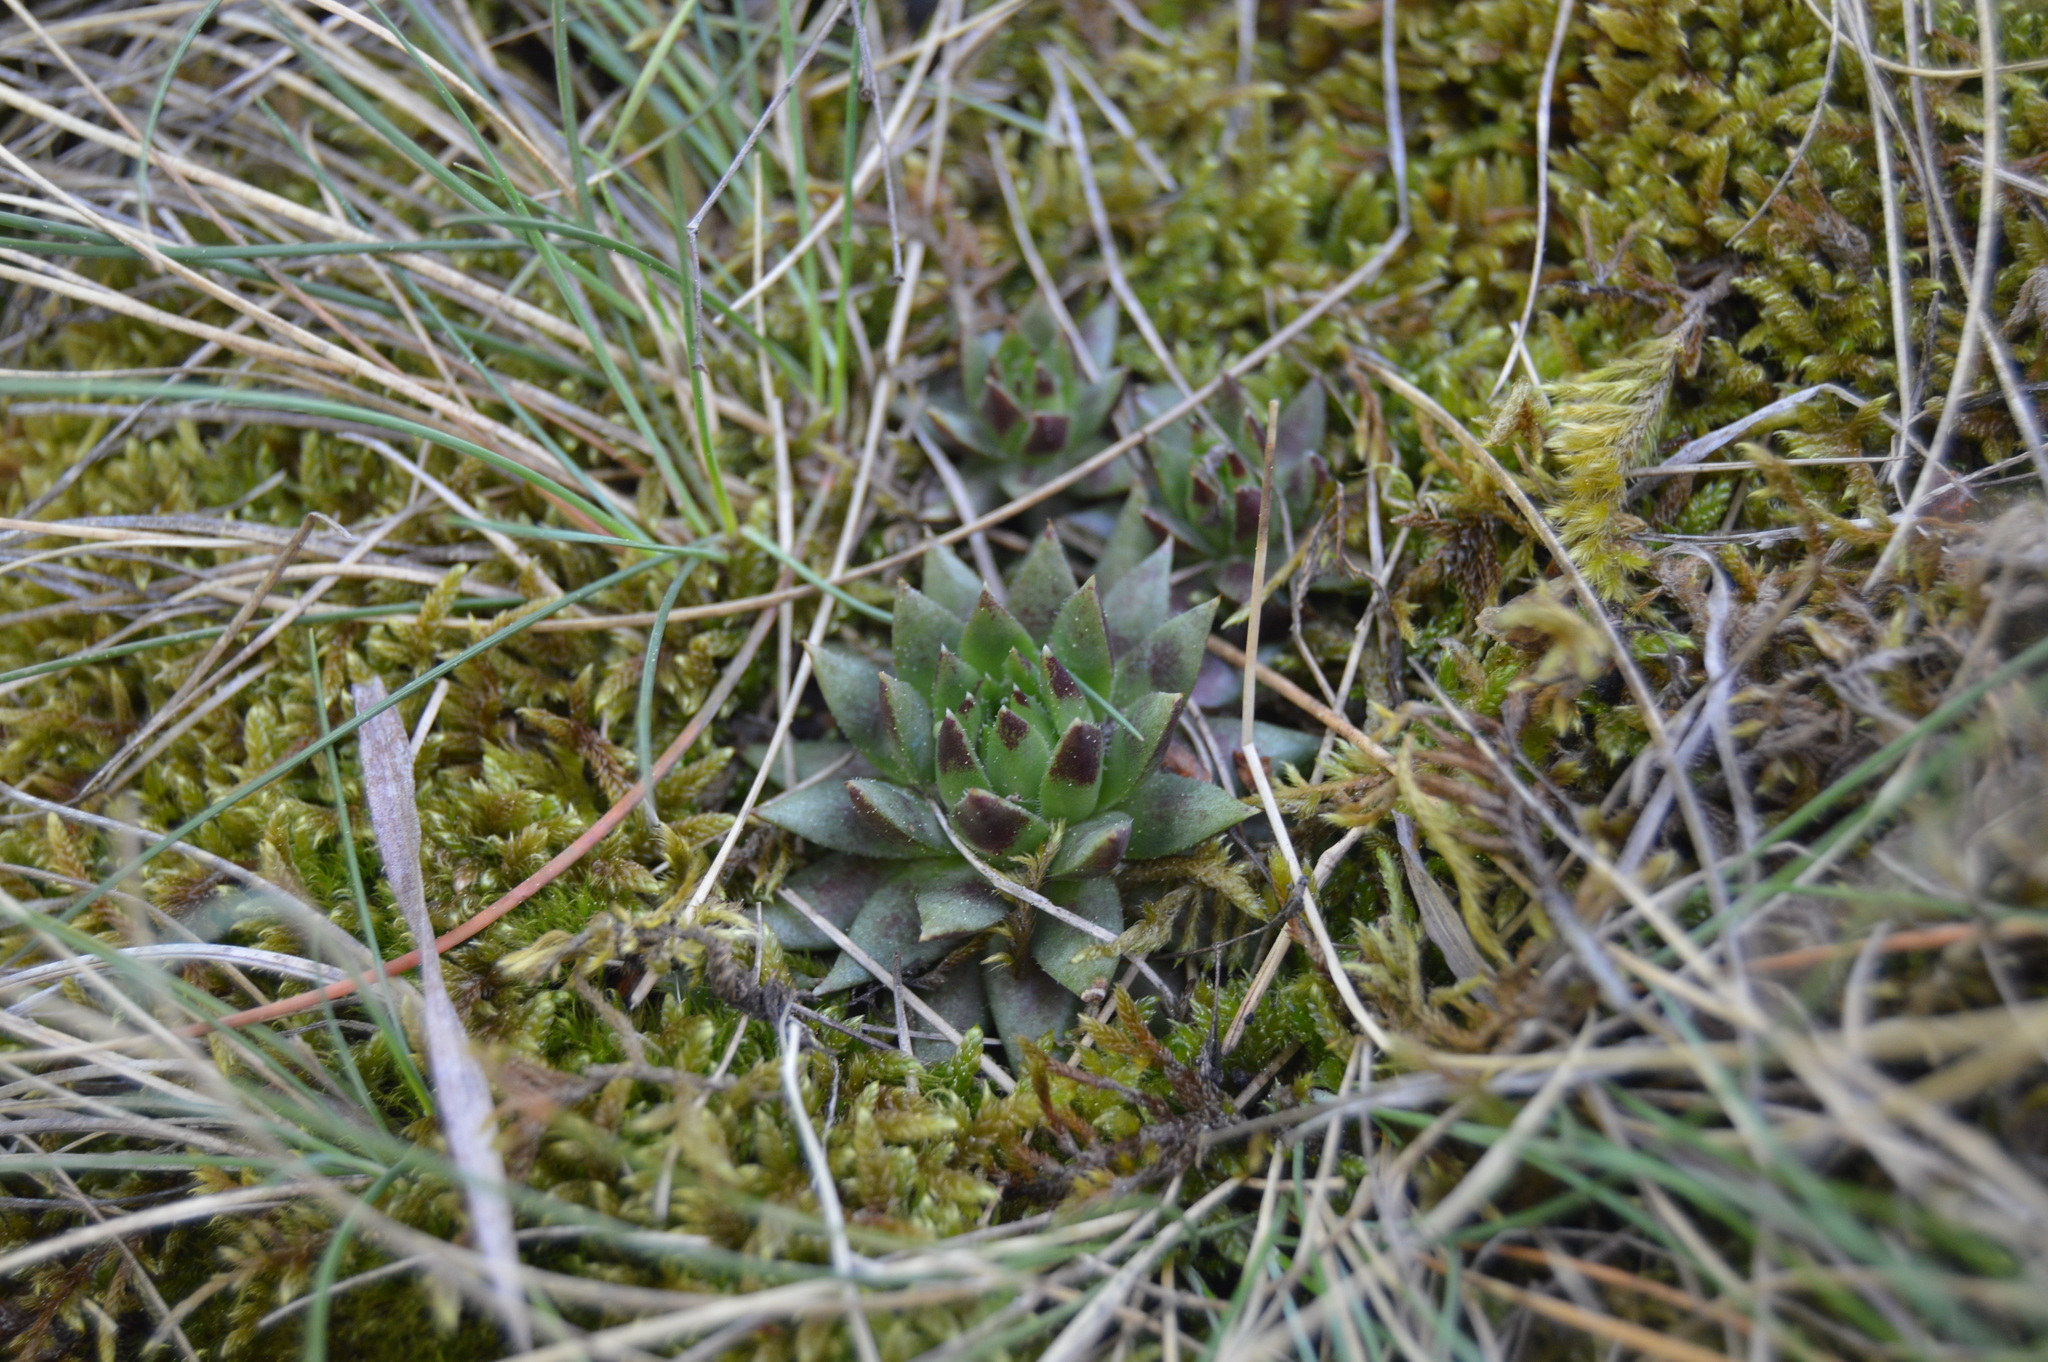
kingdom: Plantae
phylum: Tracheophyta
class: Magnoliopsida
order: Saxifragales
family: Crassulaceae
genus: Sempervivum
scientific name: Sempervivum globiferum
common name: Rolling hen-and-chicks
